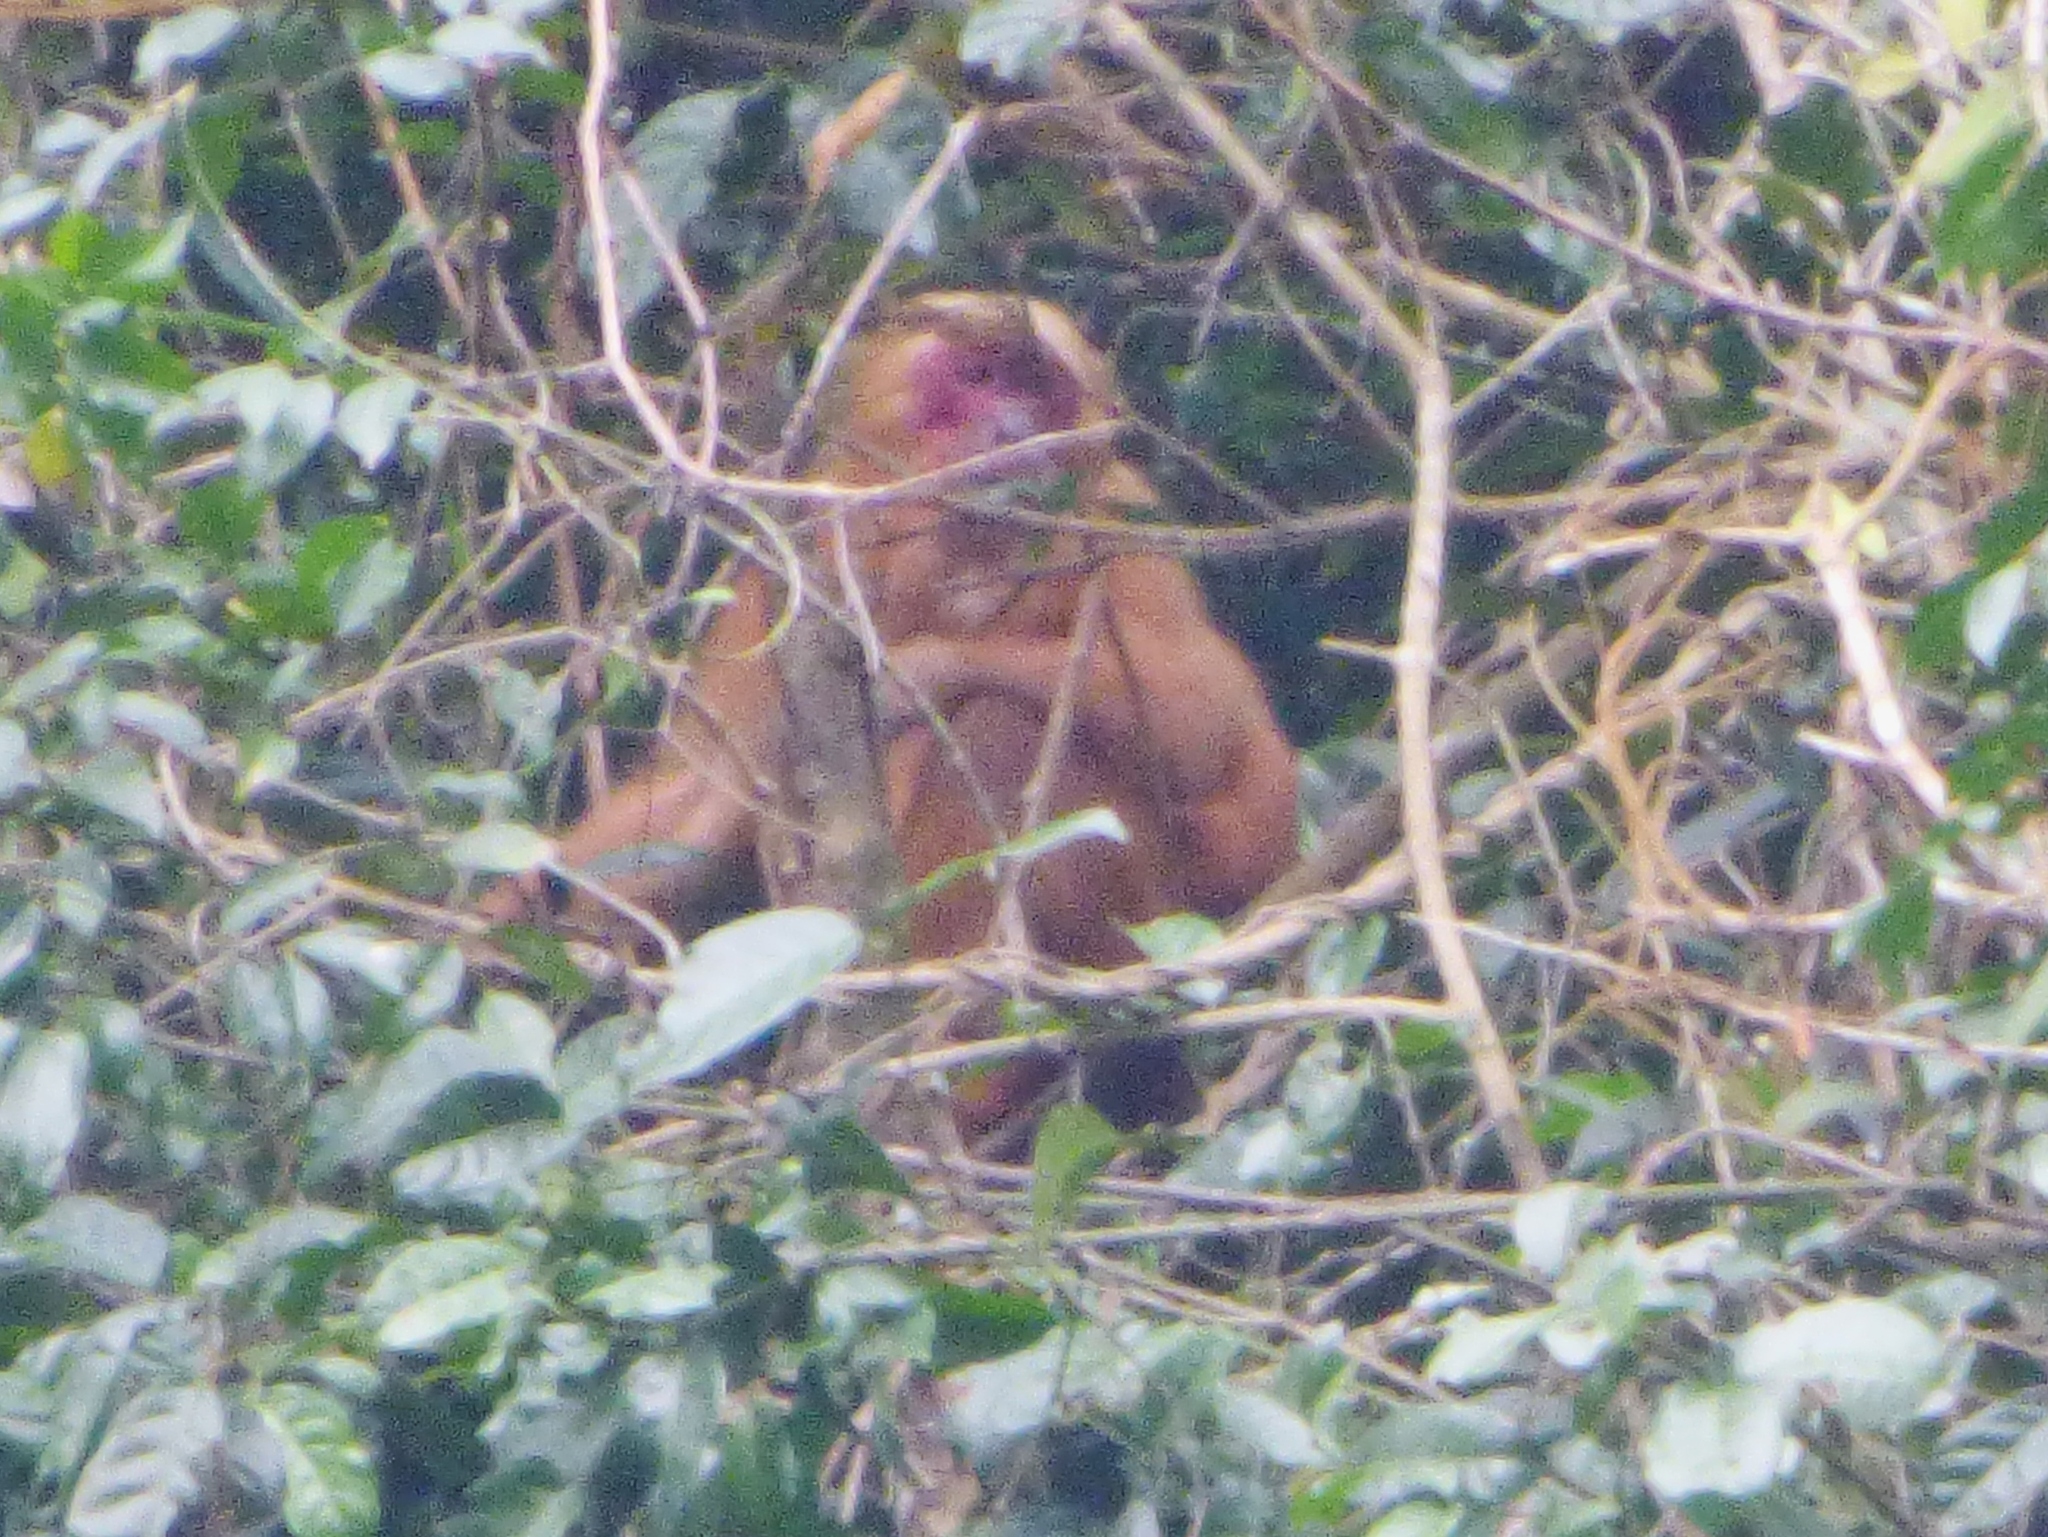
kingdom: Animalia
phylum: Chordata
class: Mammalia
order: Primates
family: Cercopithecidae
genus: Macaca
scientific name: Macaca arctoides
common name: Stump-tailed macaque
